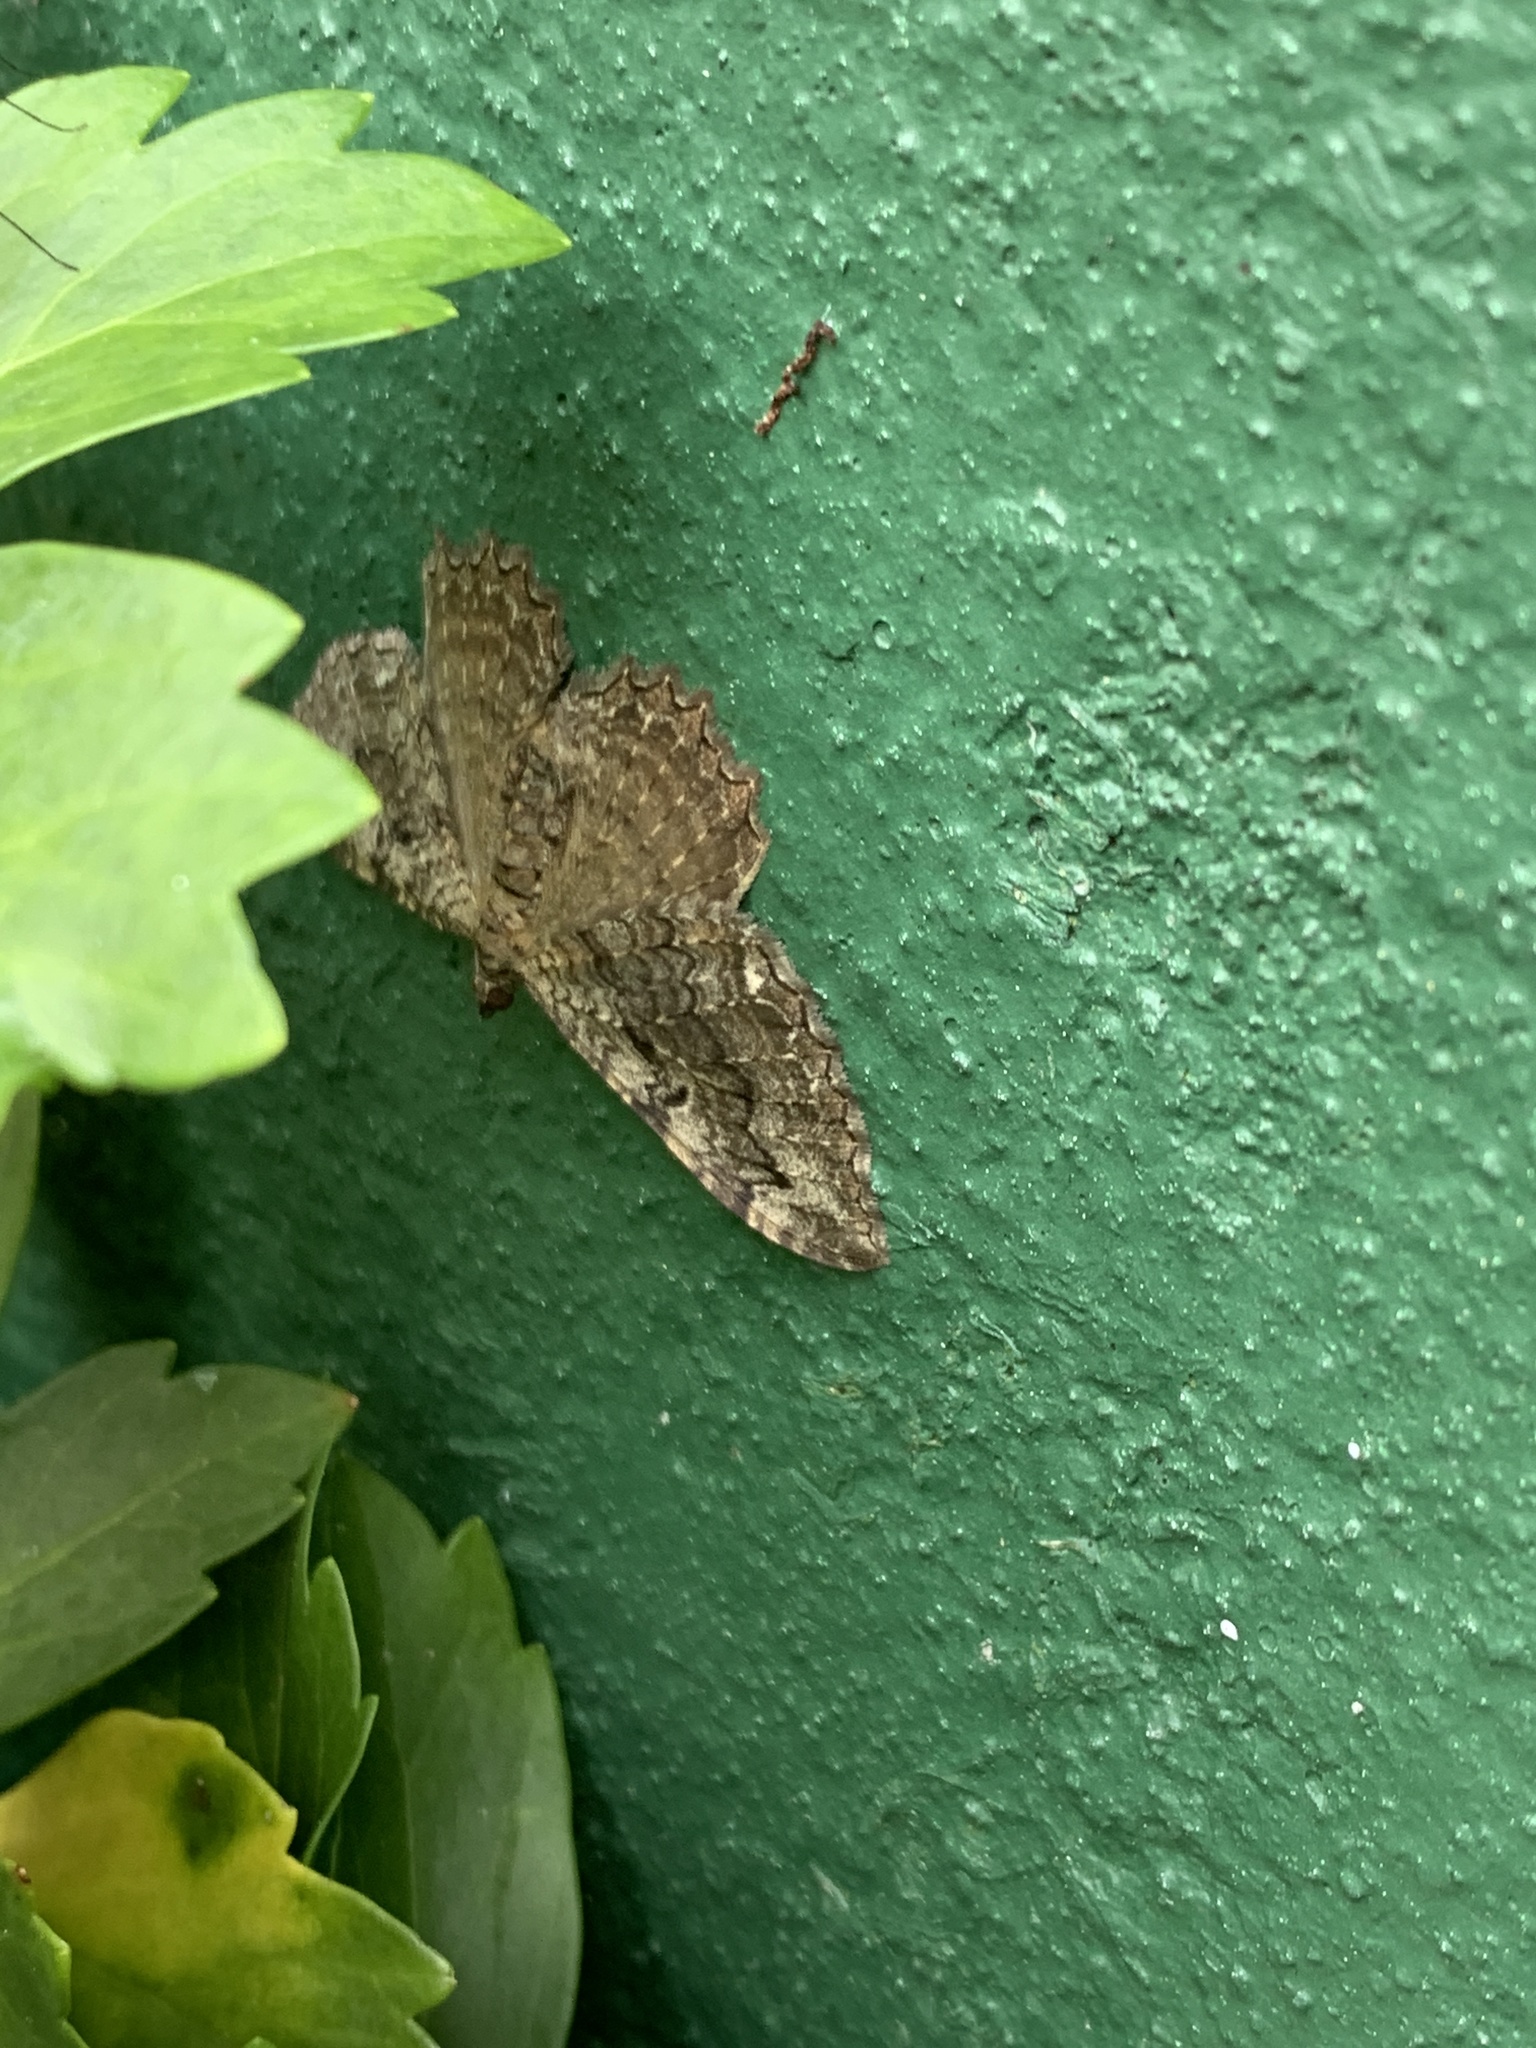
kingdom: Animalia
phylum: Arthropoda
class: Insecta
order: Lepidoptera
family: Geometridae
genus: Rheumaptera
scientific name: Rheumaptera
